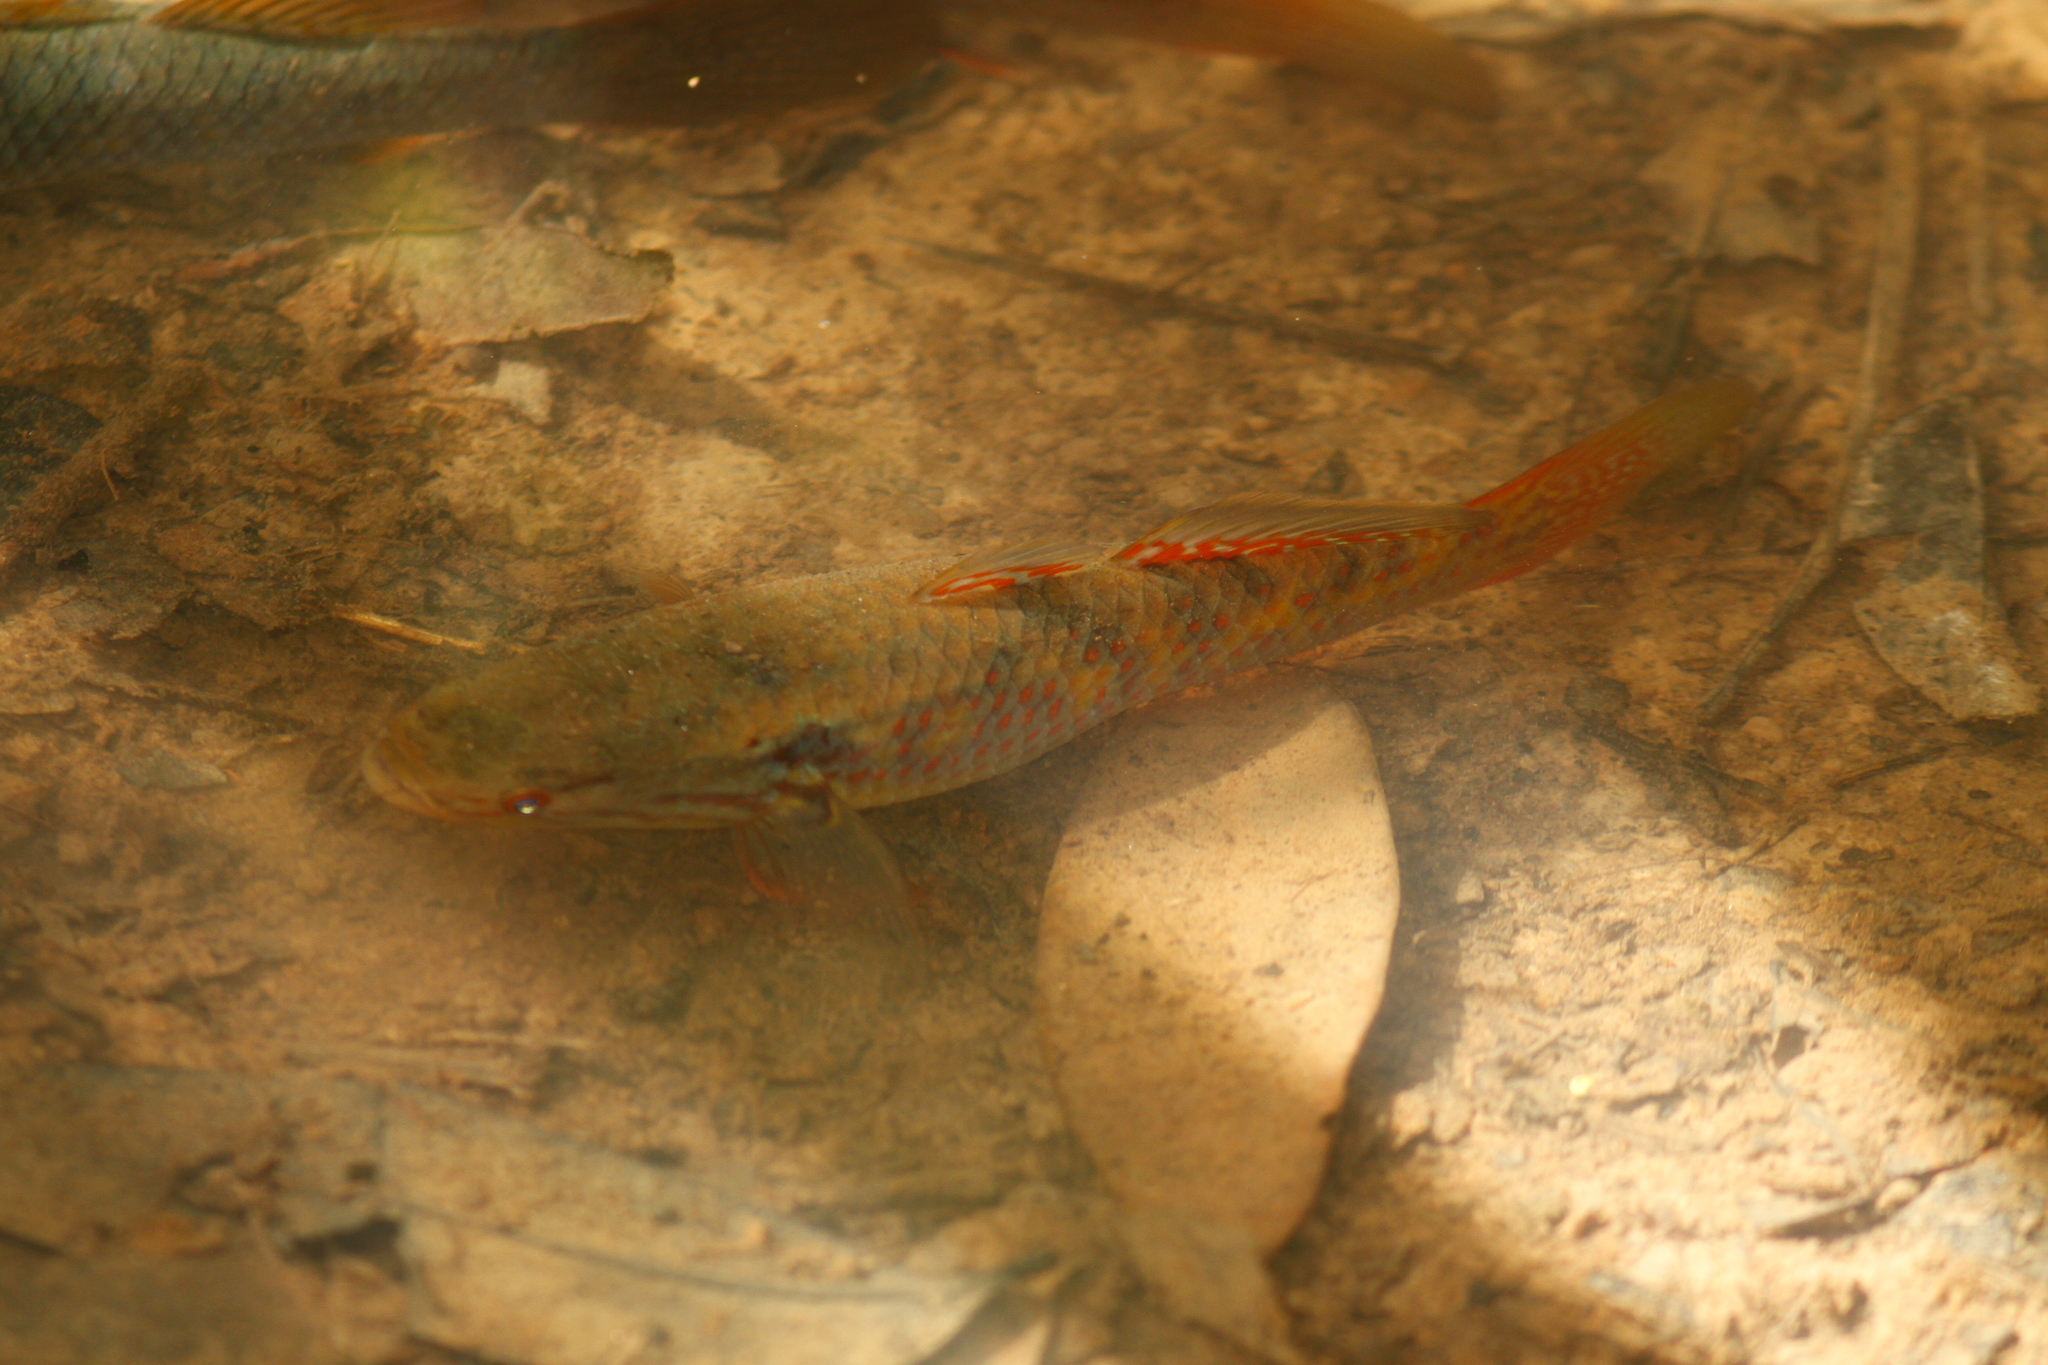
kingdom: Animalia
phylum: Chordata
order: Perciformes
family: Eleotridae
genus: Giuris
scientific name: Giuris
